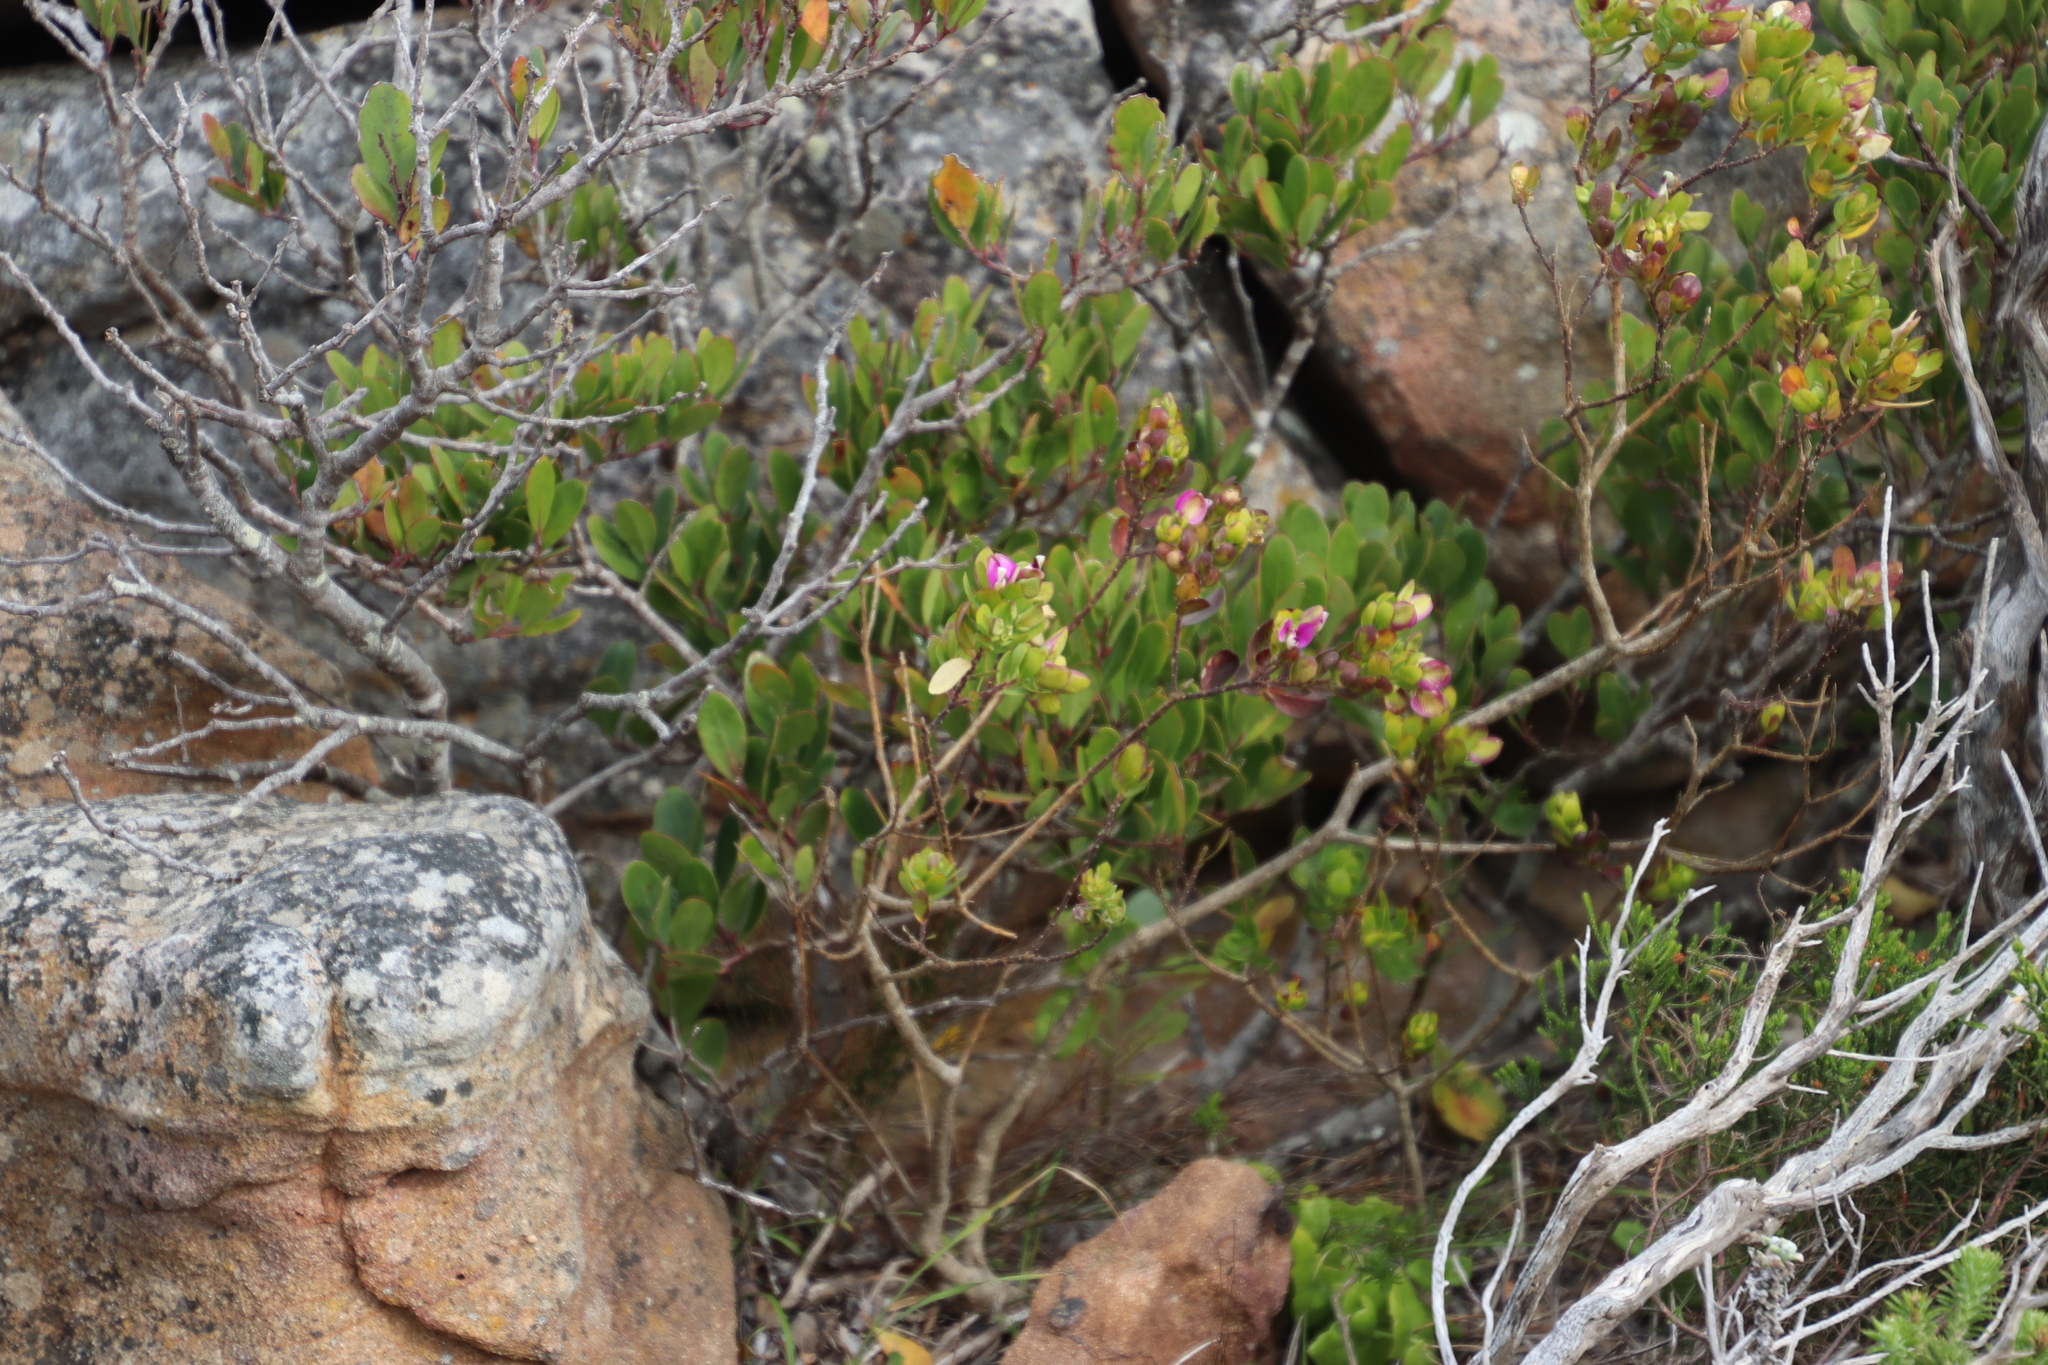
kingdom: Plantae
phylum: Tracheophyta
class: Magnoliopsida
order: Fabales
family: Polygalaceae
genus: Polygala
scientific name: Polygala myrtifolia
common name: Myrtle-leaf milkwort
